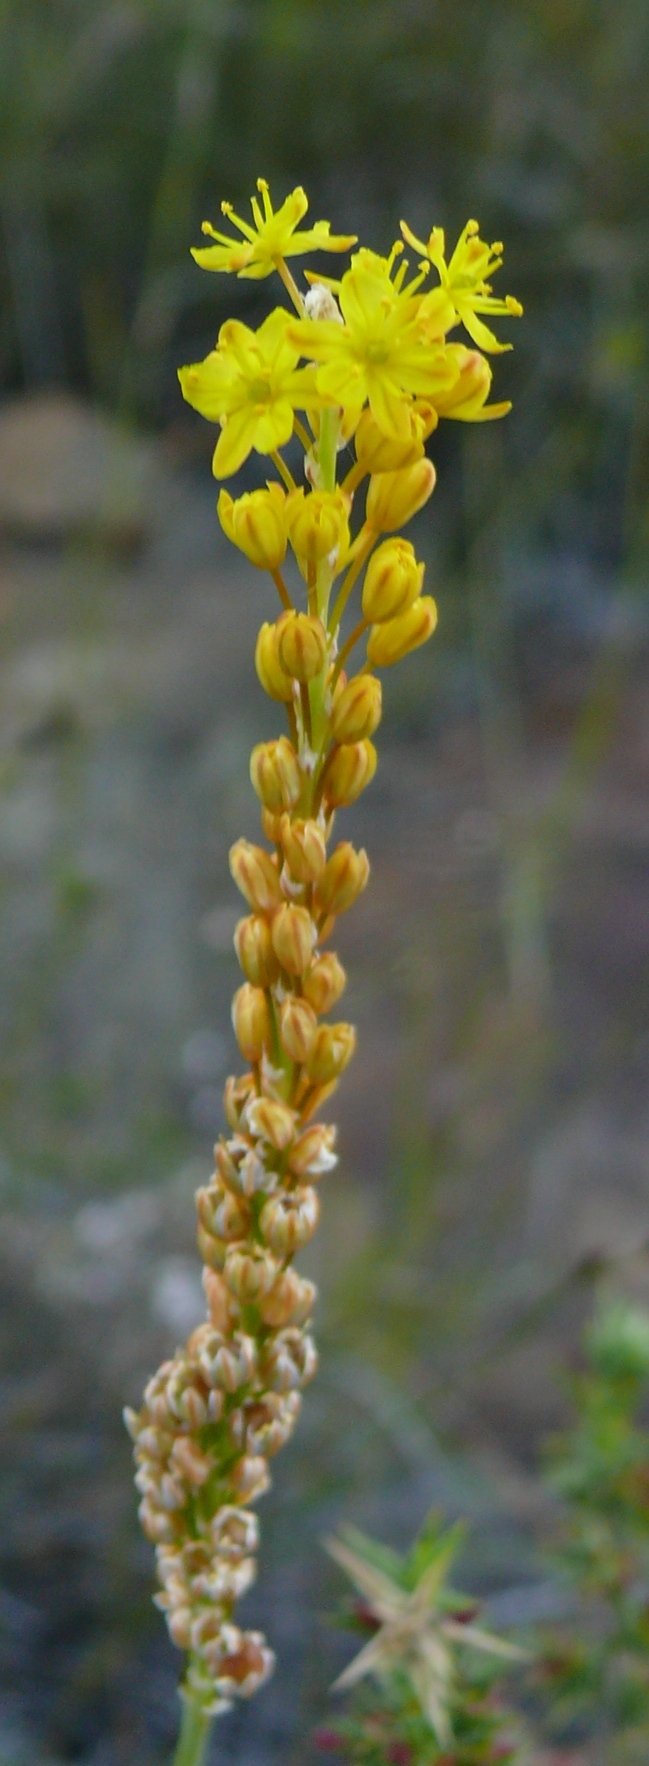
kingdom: Plantae
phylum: Tracheophyta
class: Liliopsida
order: Asparagales
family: Asphodelaceae
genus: Bulbinella
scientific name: Bulbinella punctulata
